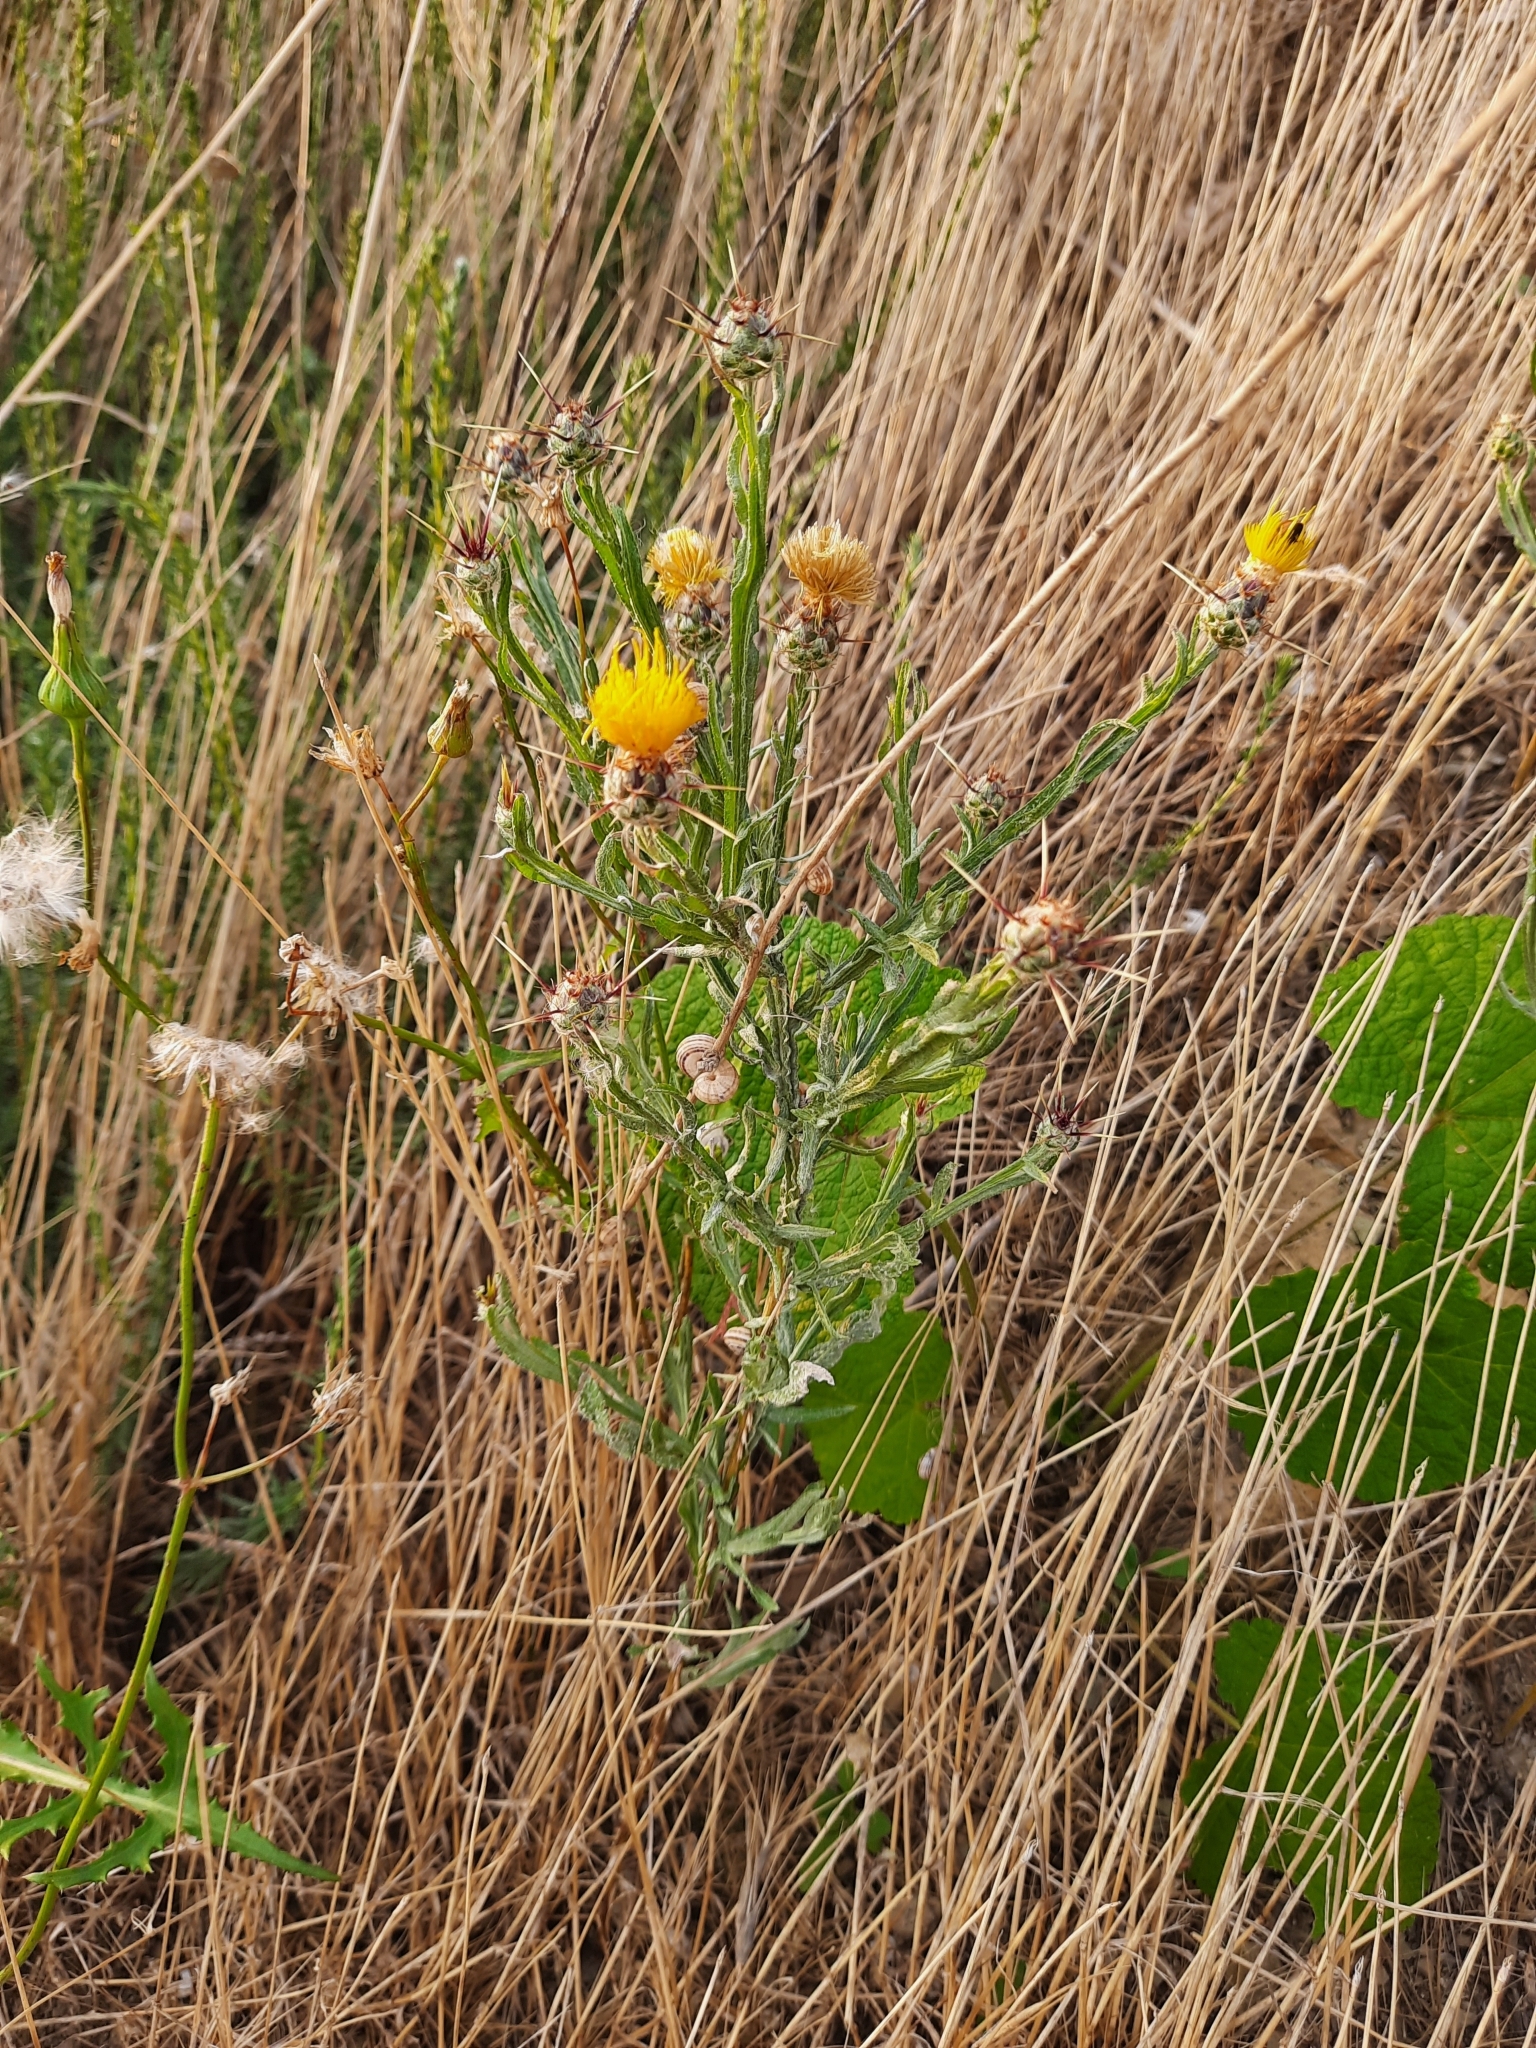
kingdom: Plantae
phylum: Tracheophyta
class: Magnoliopsida
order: Asterales
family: Asteraceae
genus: Centaurea
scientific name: Centaurea solstitialis
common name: Yellow star-thistle
